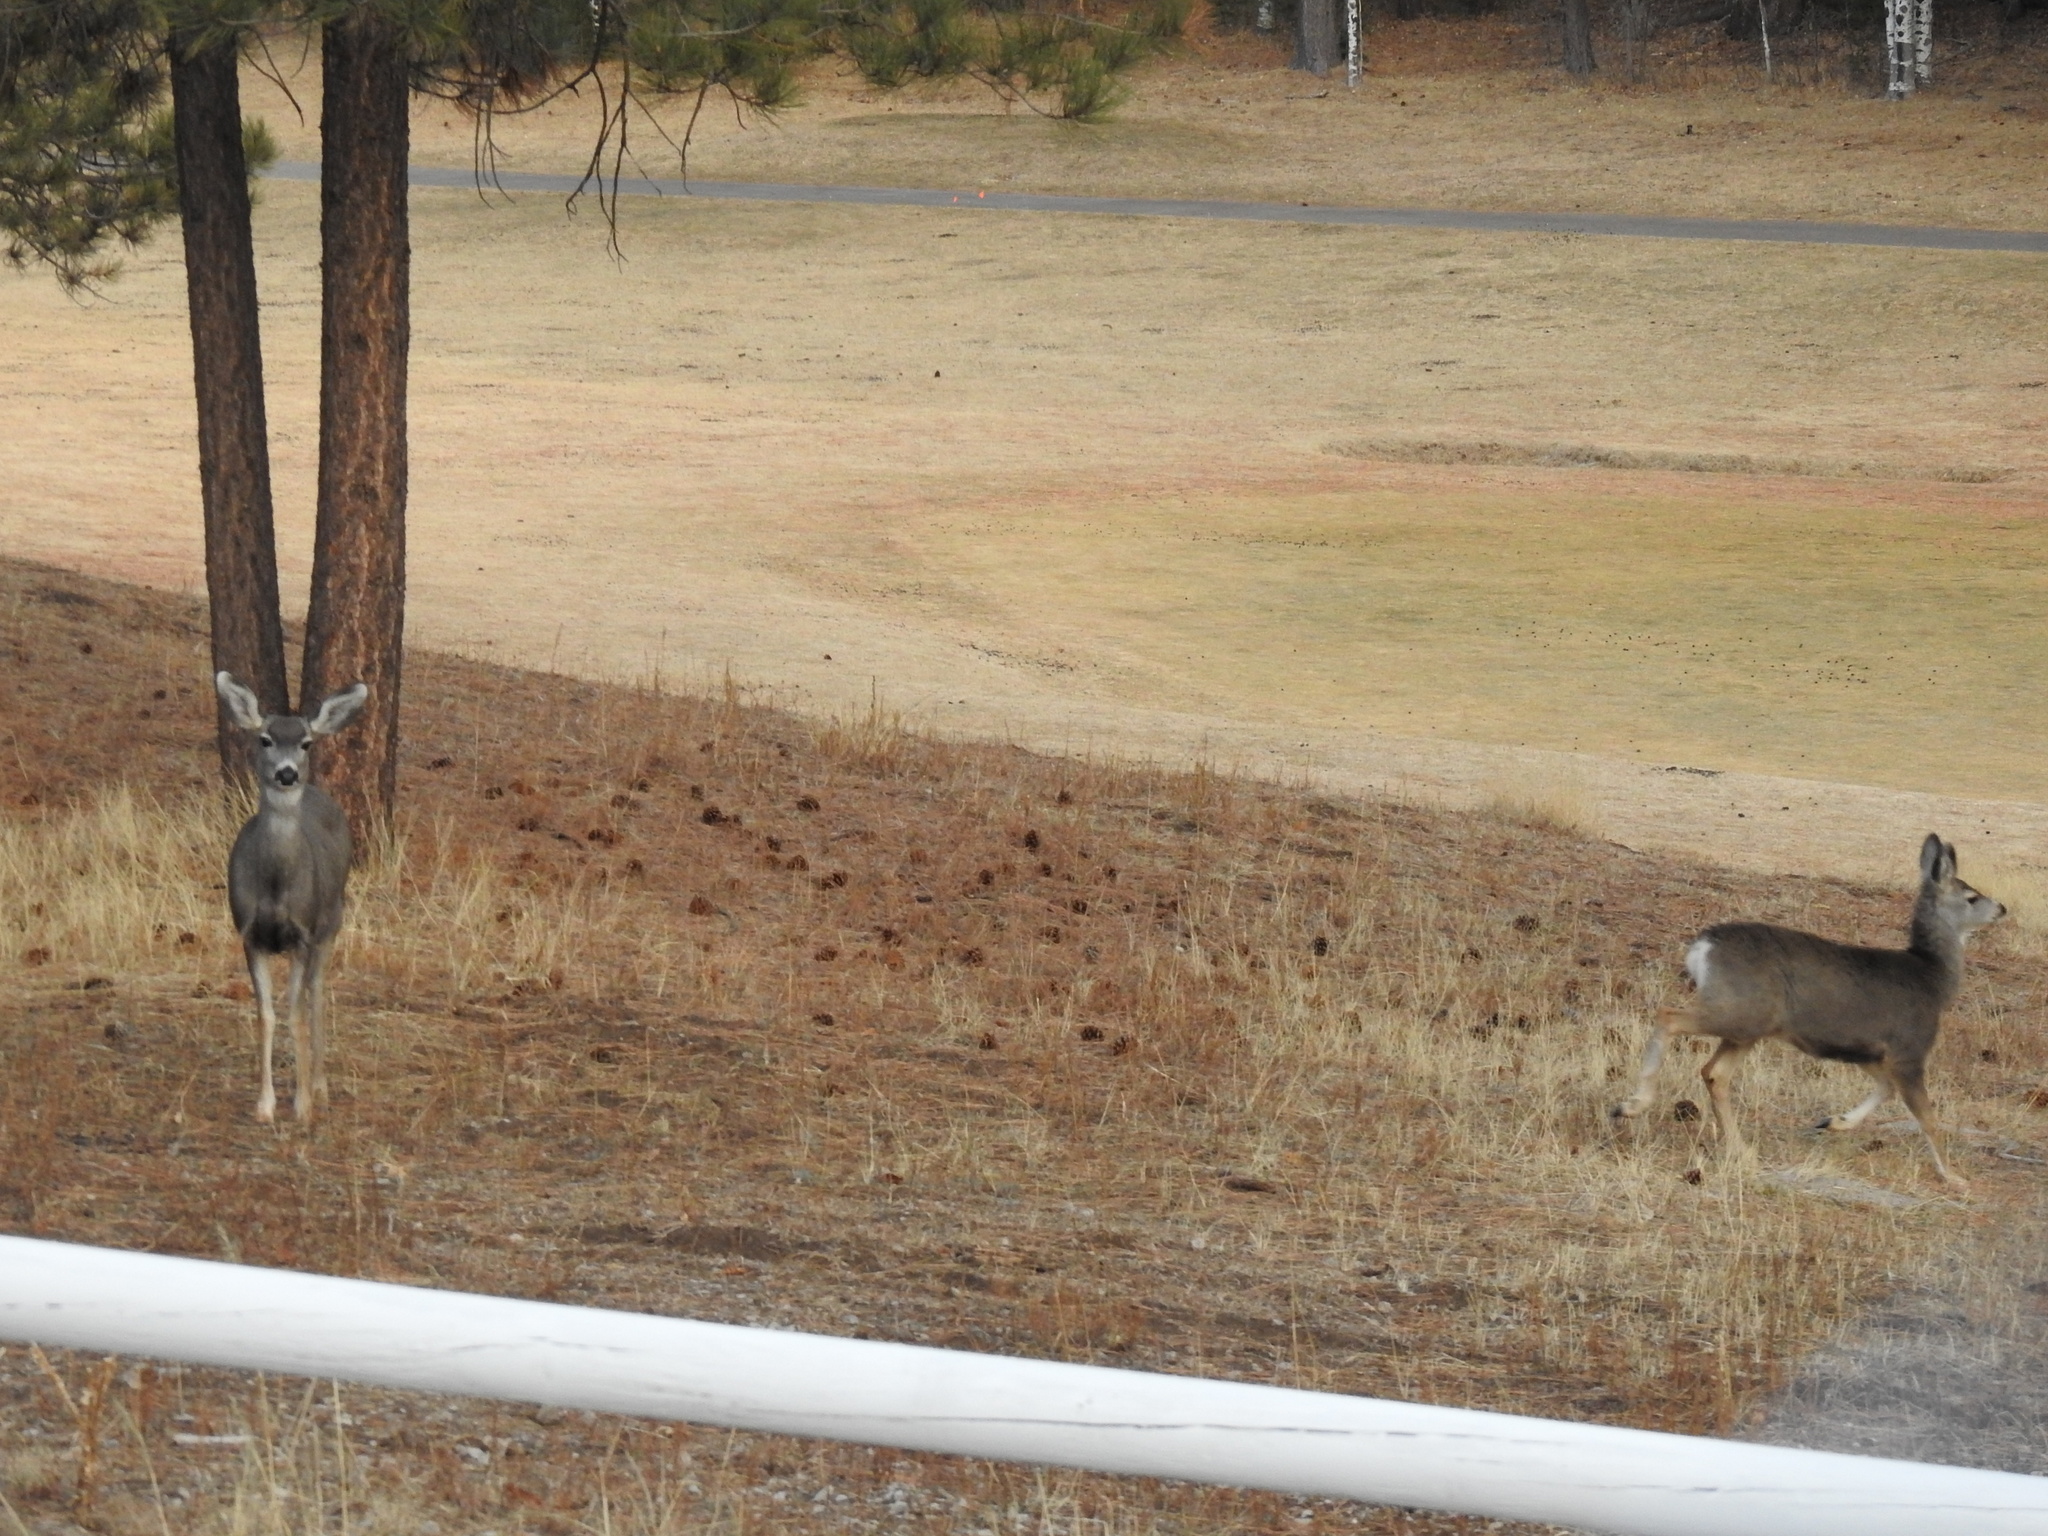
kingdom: Animalia
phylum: Chordata
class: Mammalia
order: Artiodactyla
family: Cervidae
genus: Odocoileus
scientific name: Odocoileus hemionus
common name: Mule deer
